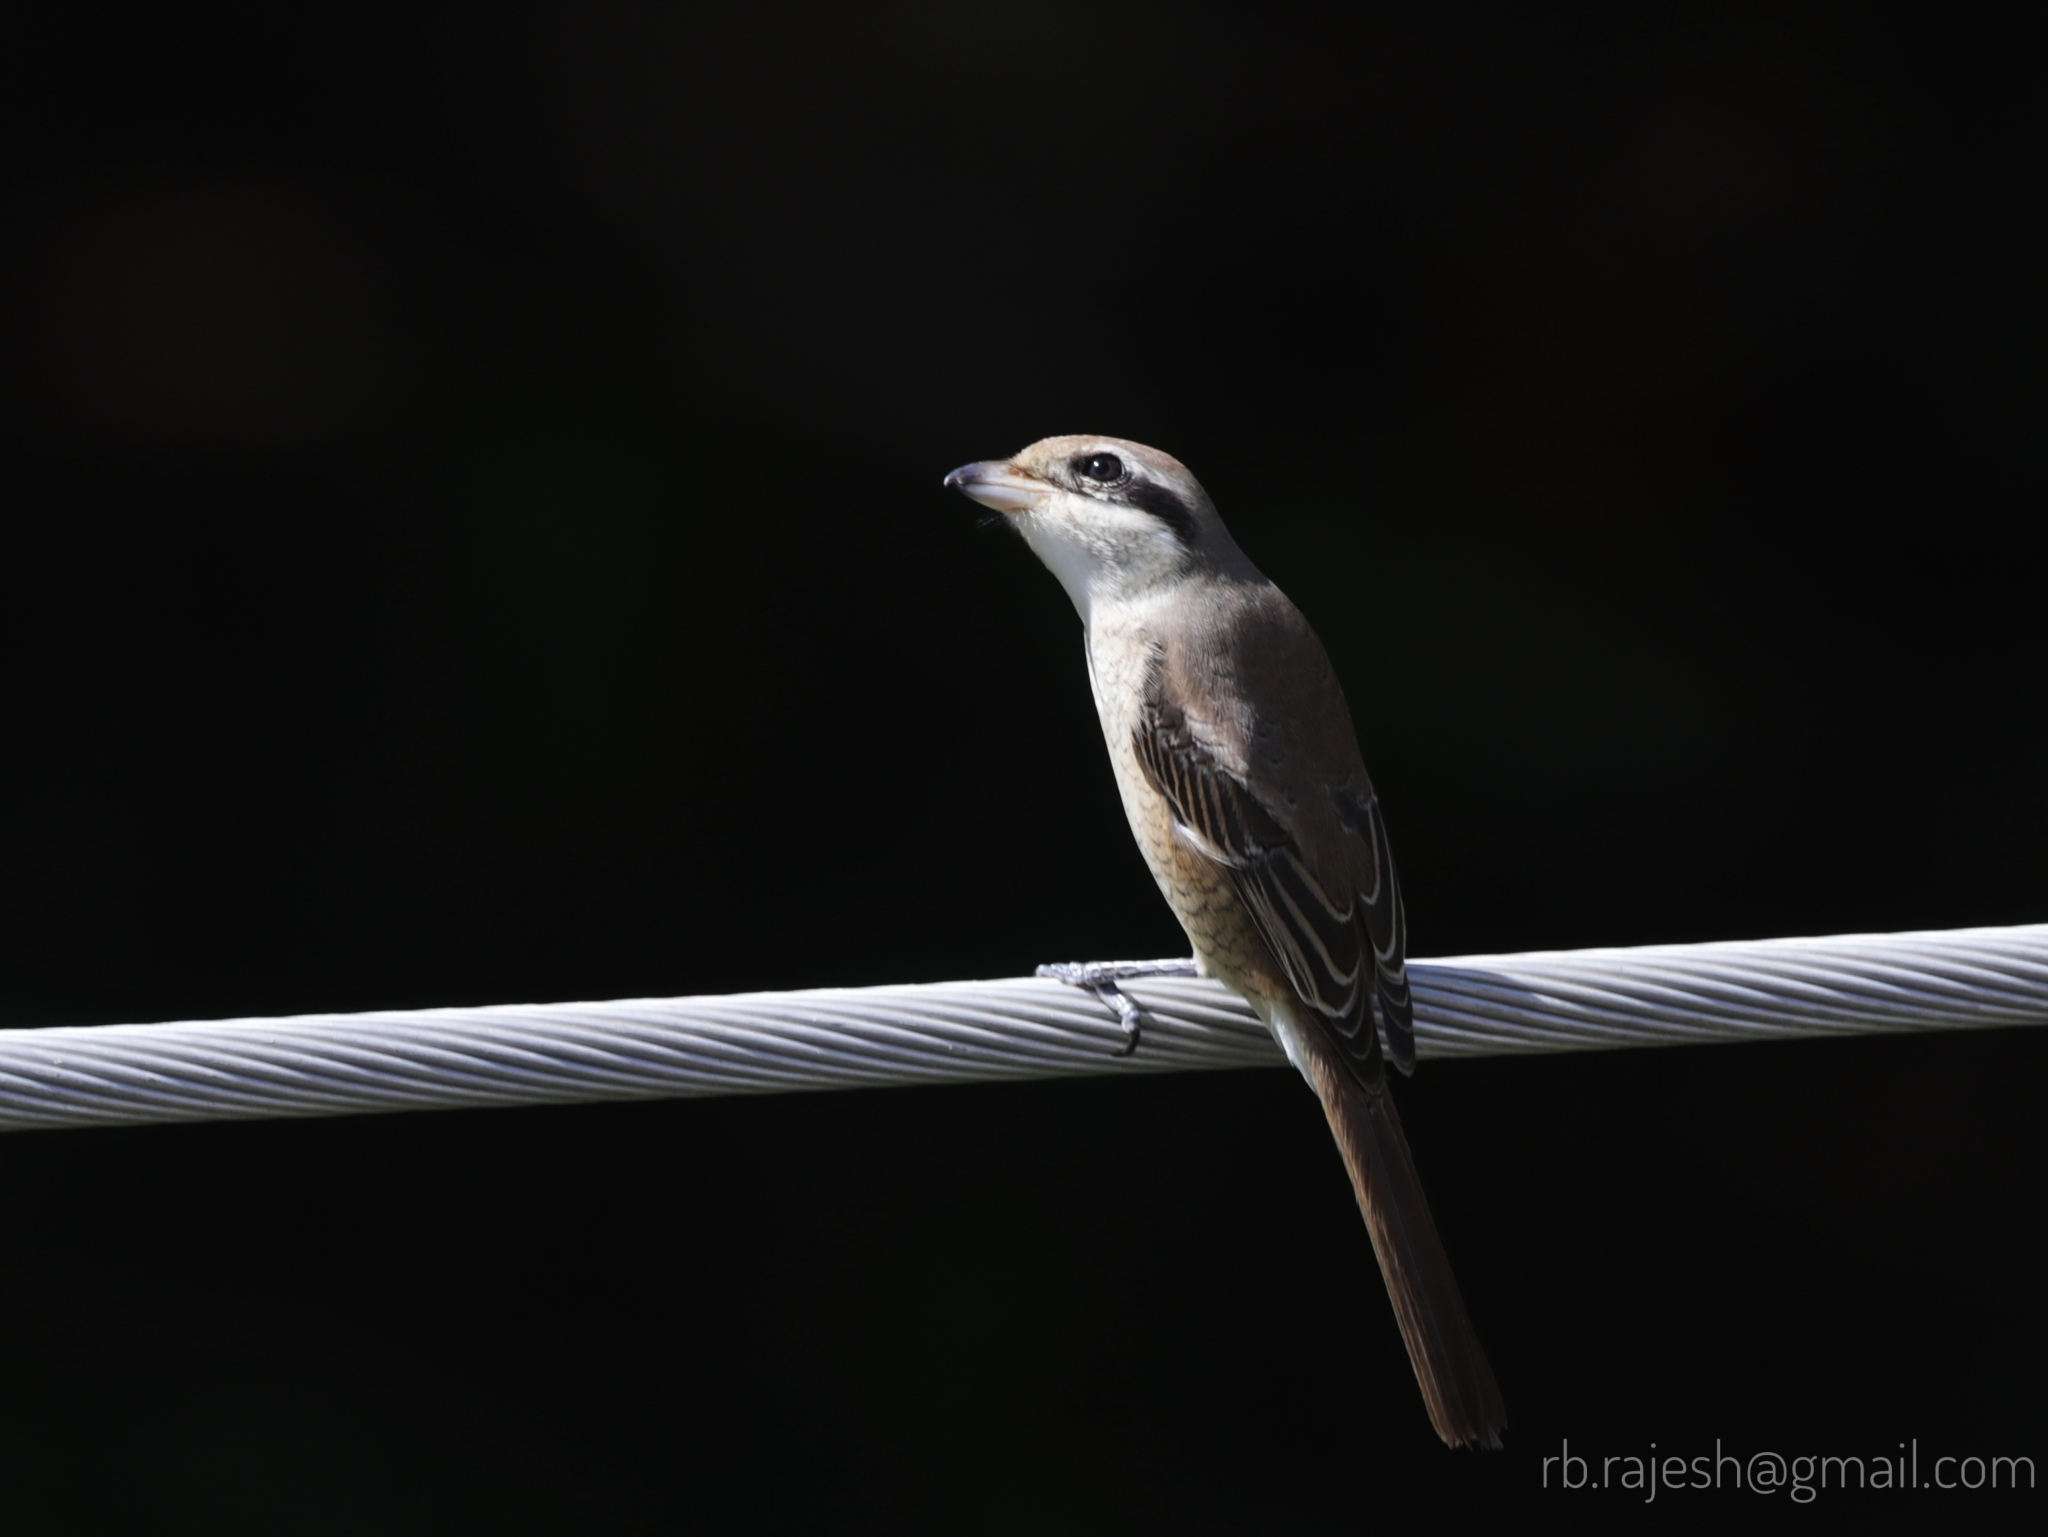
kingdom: Animalia
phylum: Chordata
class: Aves
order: Passeriformes
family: Laniidae
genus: Lanius
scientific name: Lanius cristatus
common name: Brown shrike
